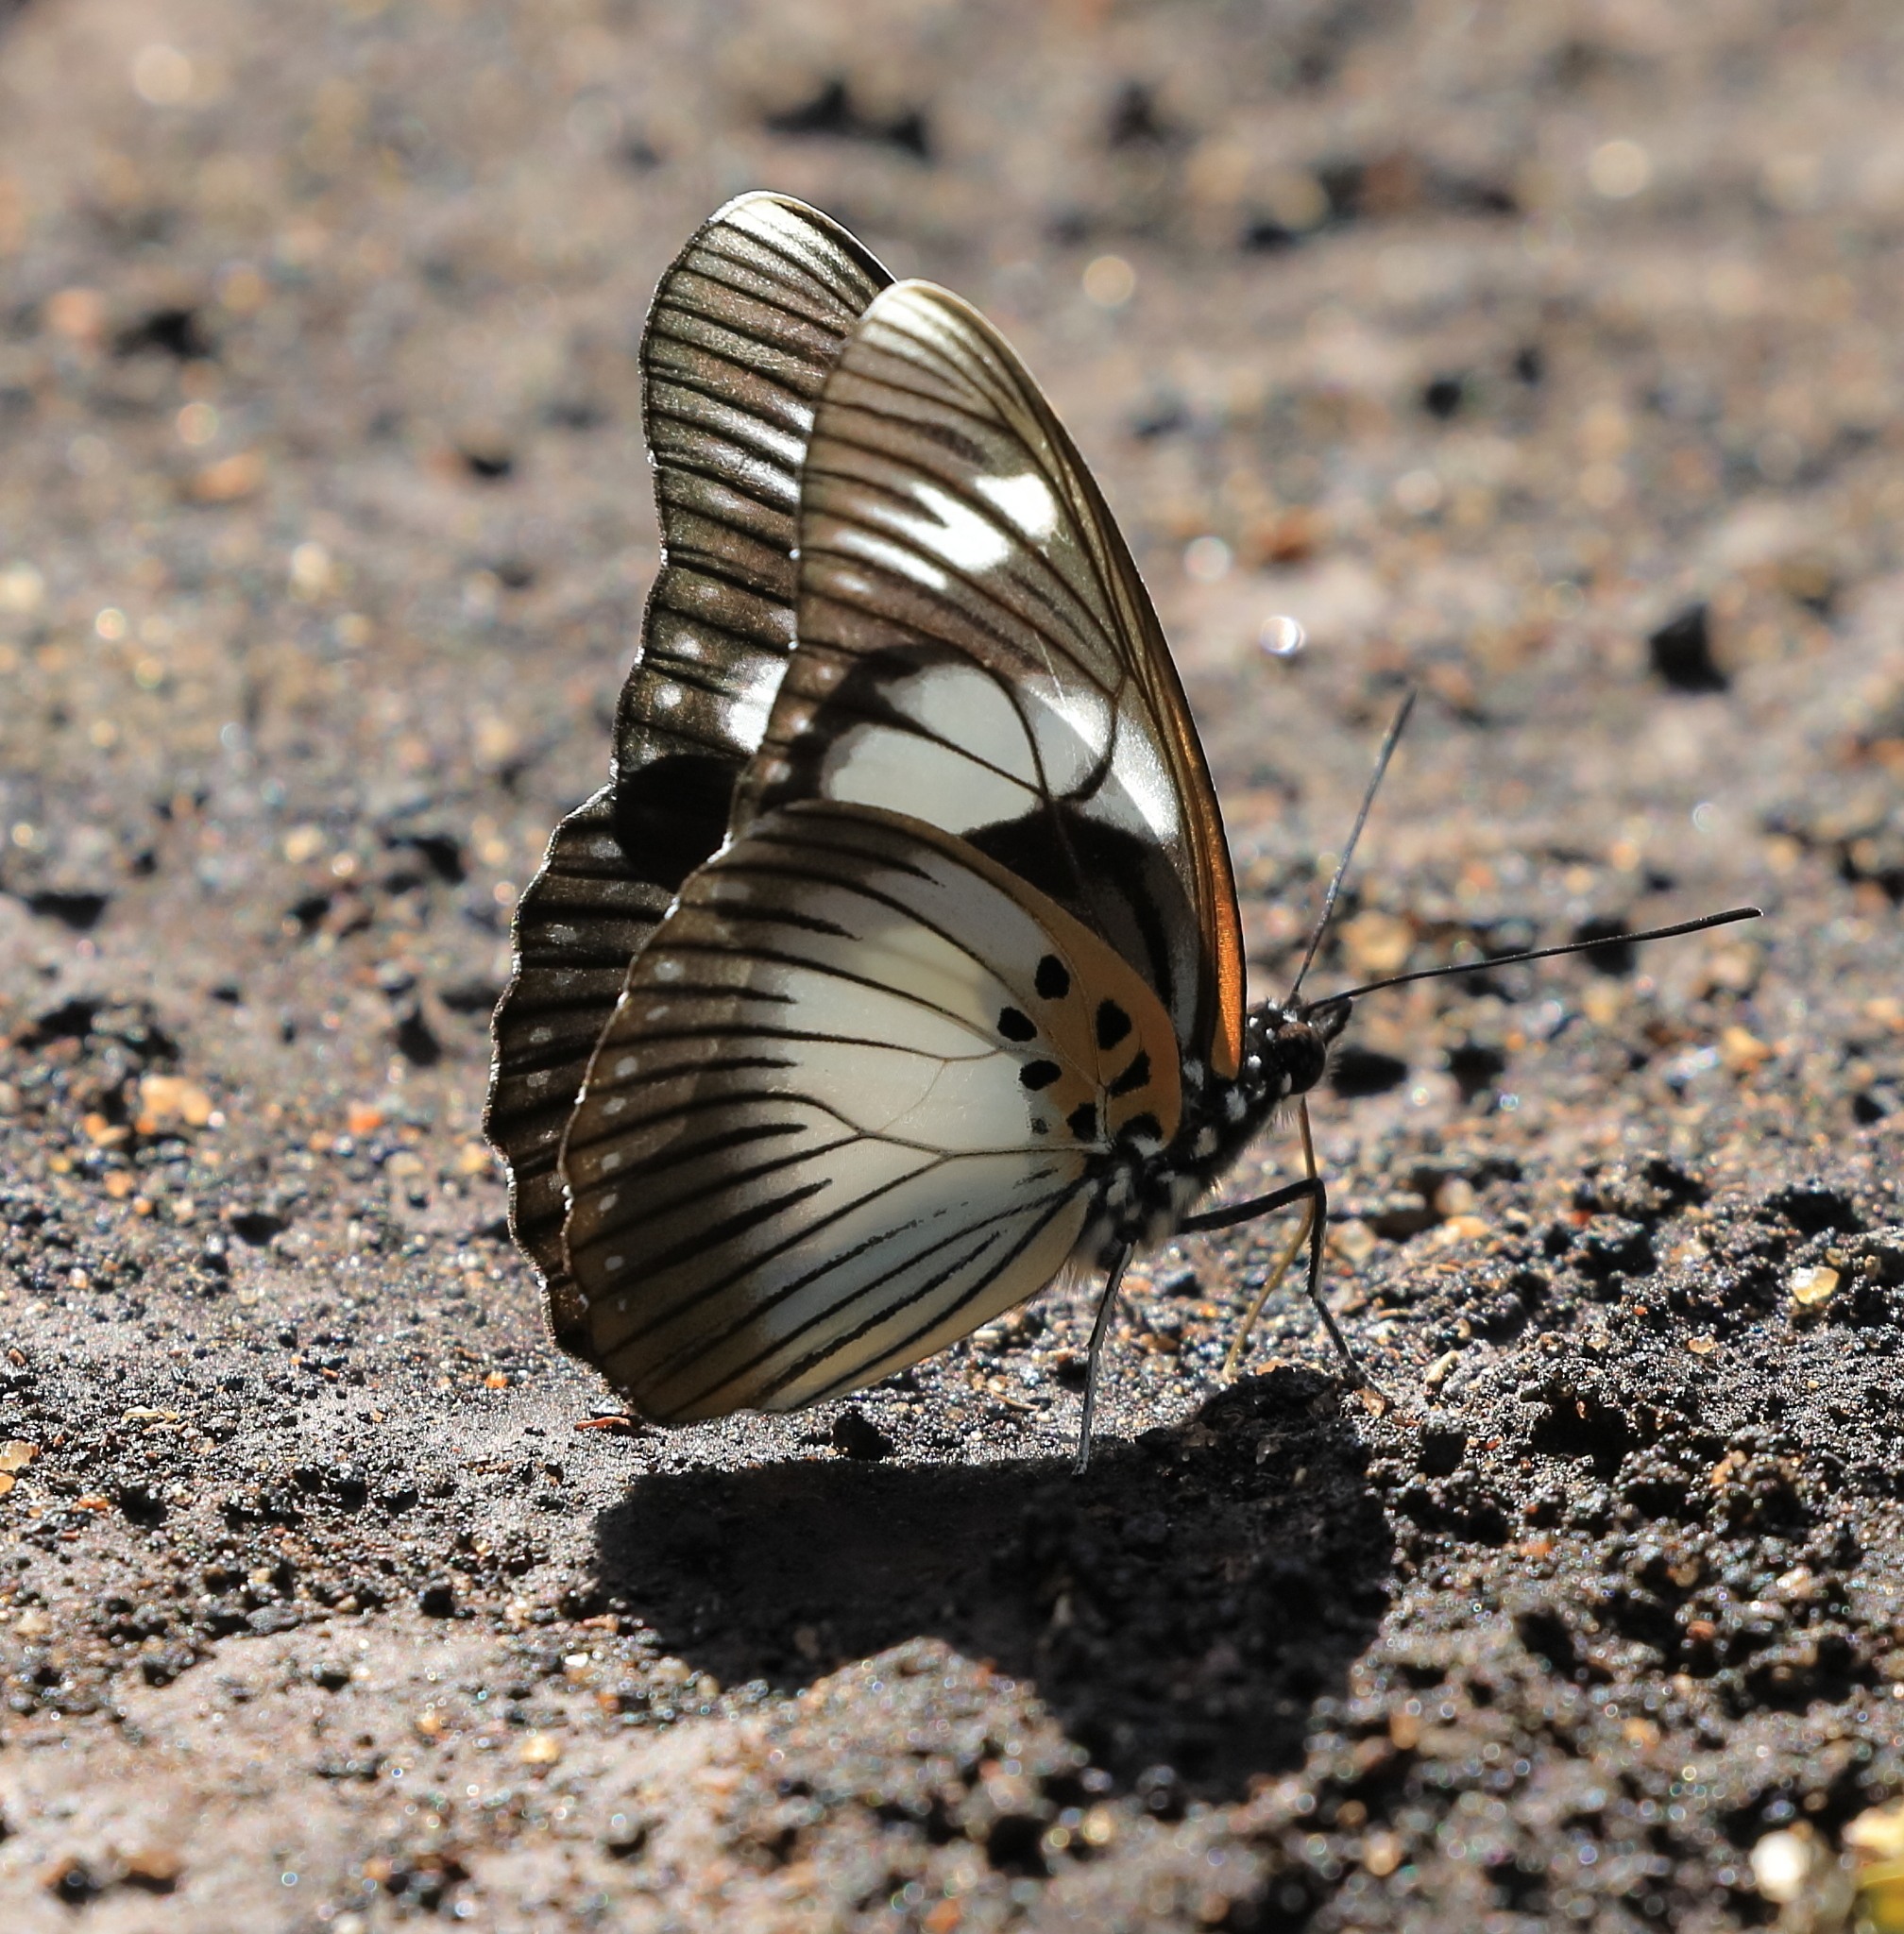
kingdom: Animalia
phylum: Arthropoda
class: Insecta
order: Lepidoptera
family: Nymphalidae
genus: Chloropoea
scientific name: Chloropoea lucretia
